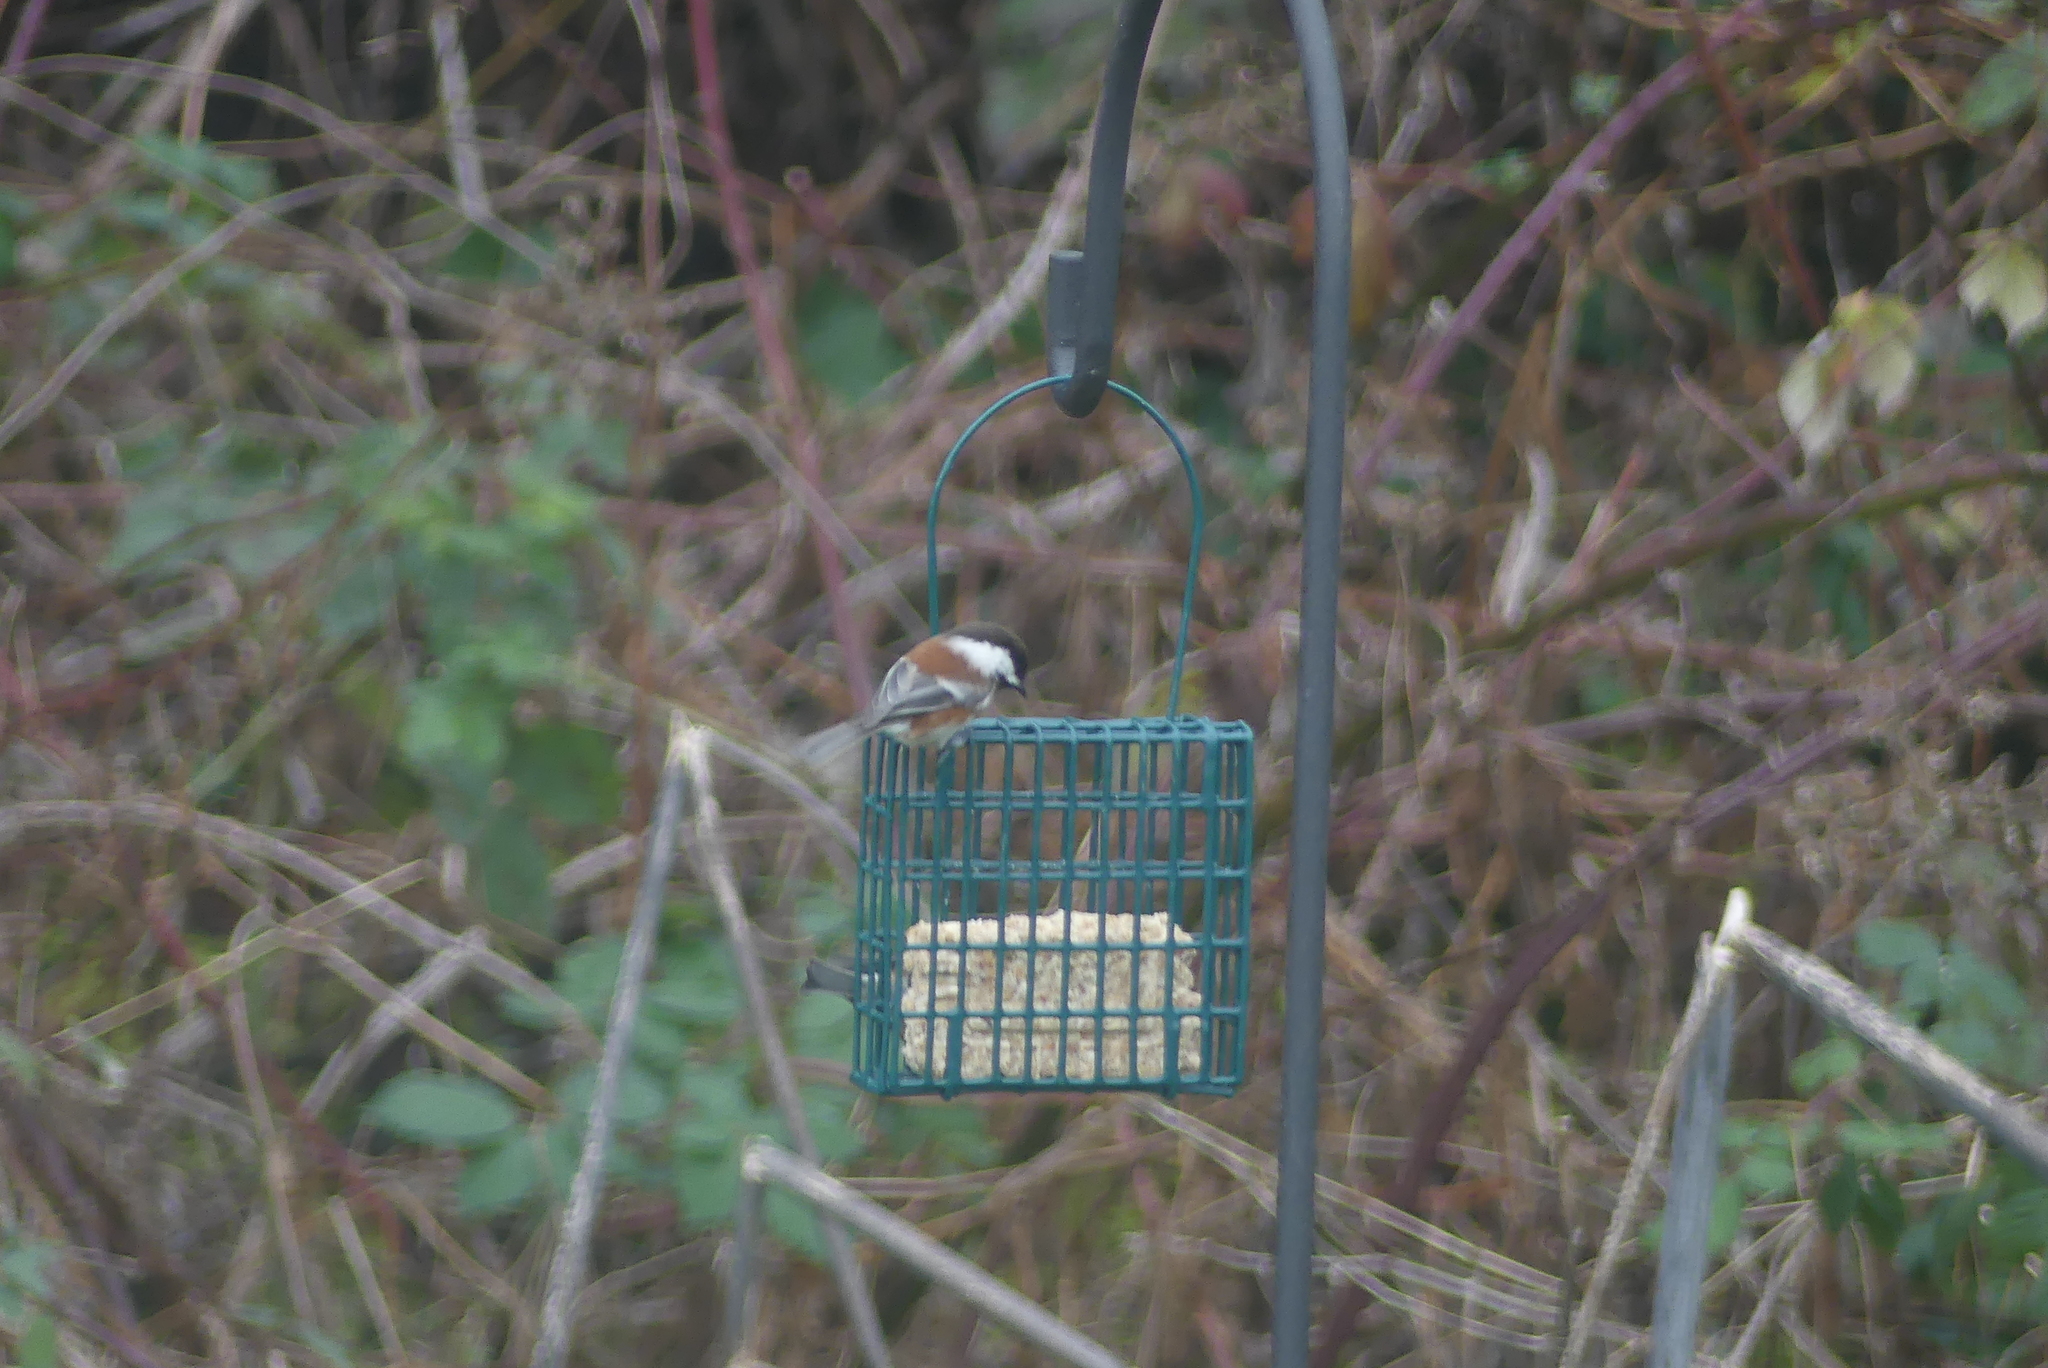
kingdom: Animalia
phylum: Chordata
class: Aves
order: Passeriformes
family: Paridae
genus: Poecile
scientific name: Poecile rufescens
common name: Chestnut-backed chickadee
